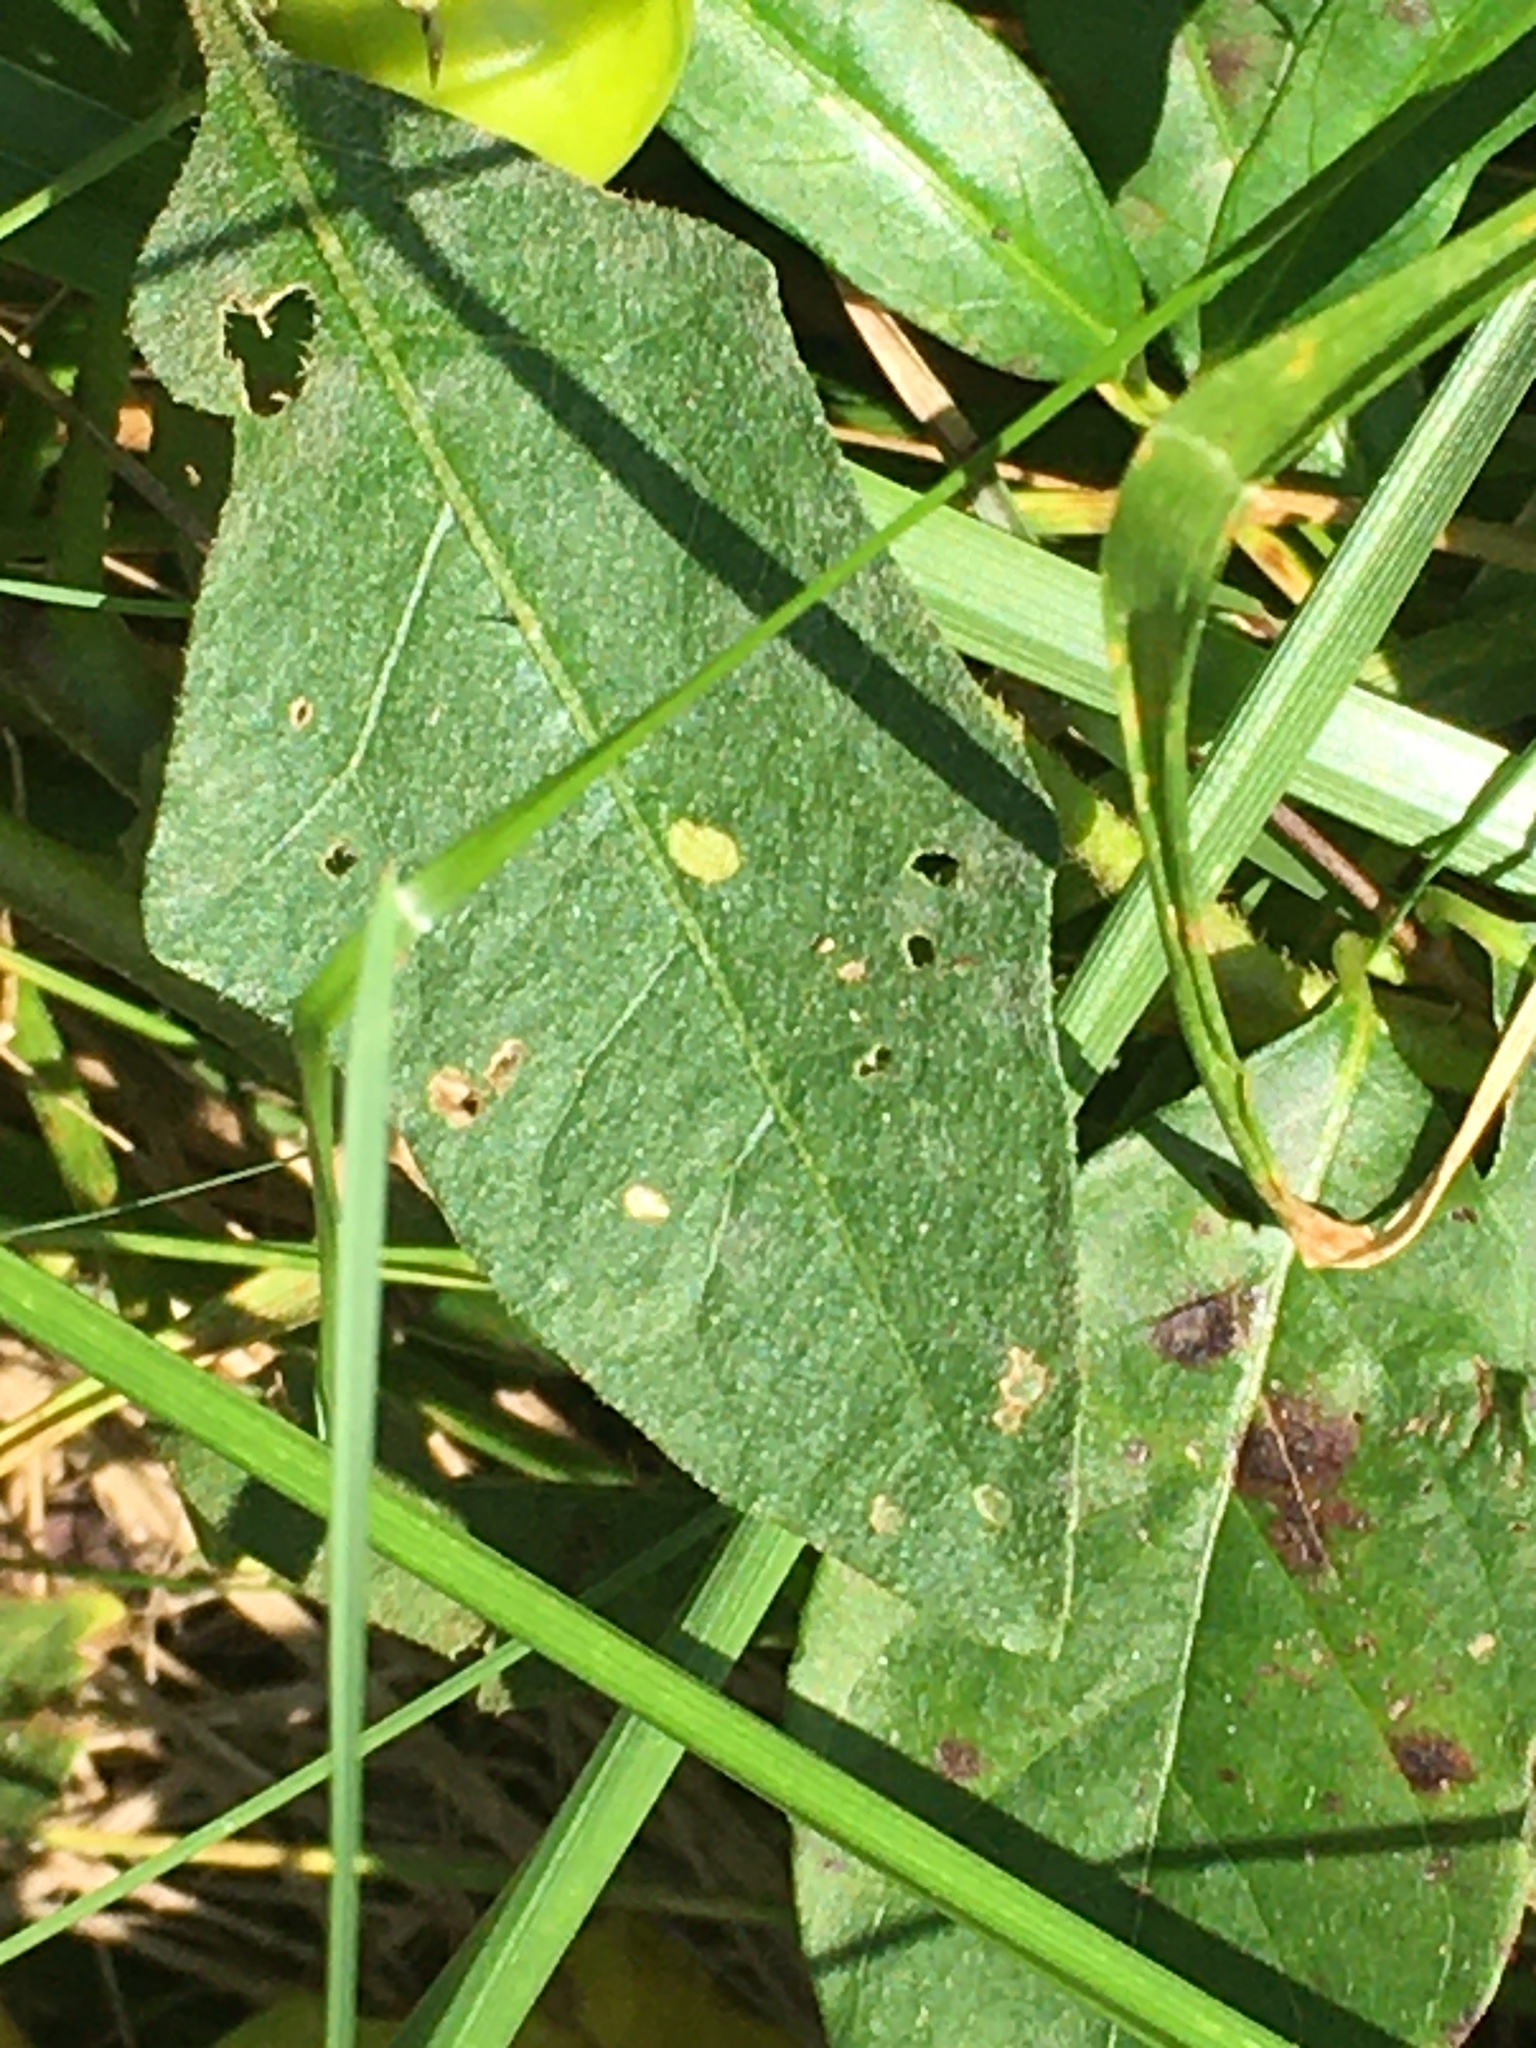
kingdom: Plantae
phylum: Tracheophyta
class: Magnoliopsida
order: Solanales
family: Solanaceae
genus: Solanum
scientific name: Solanum carolinense
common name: Horse-nettle
